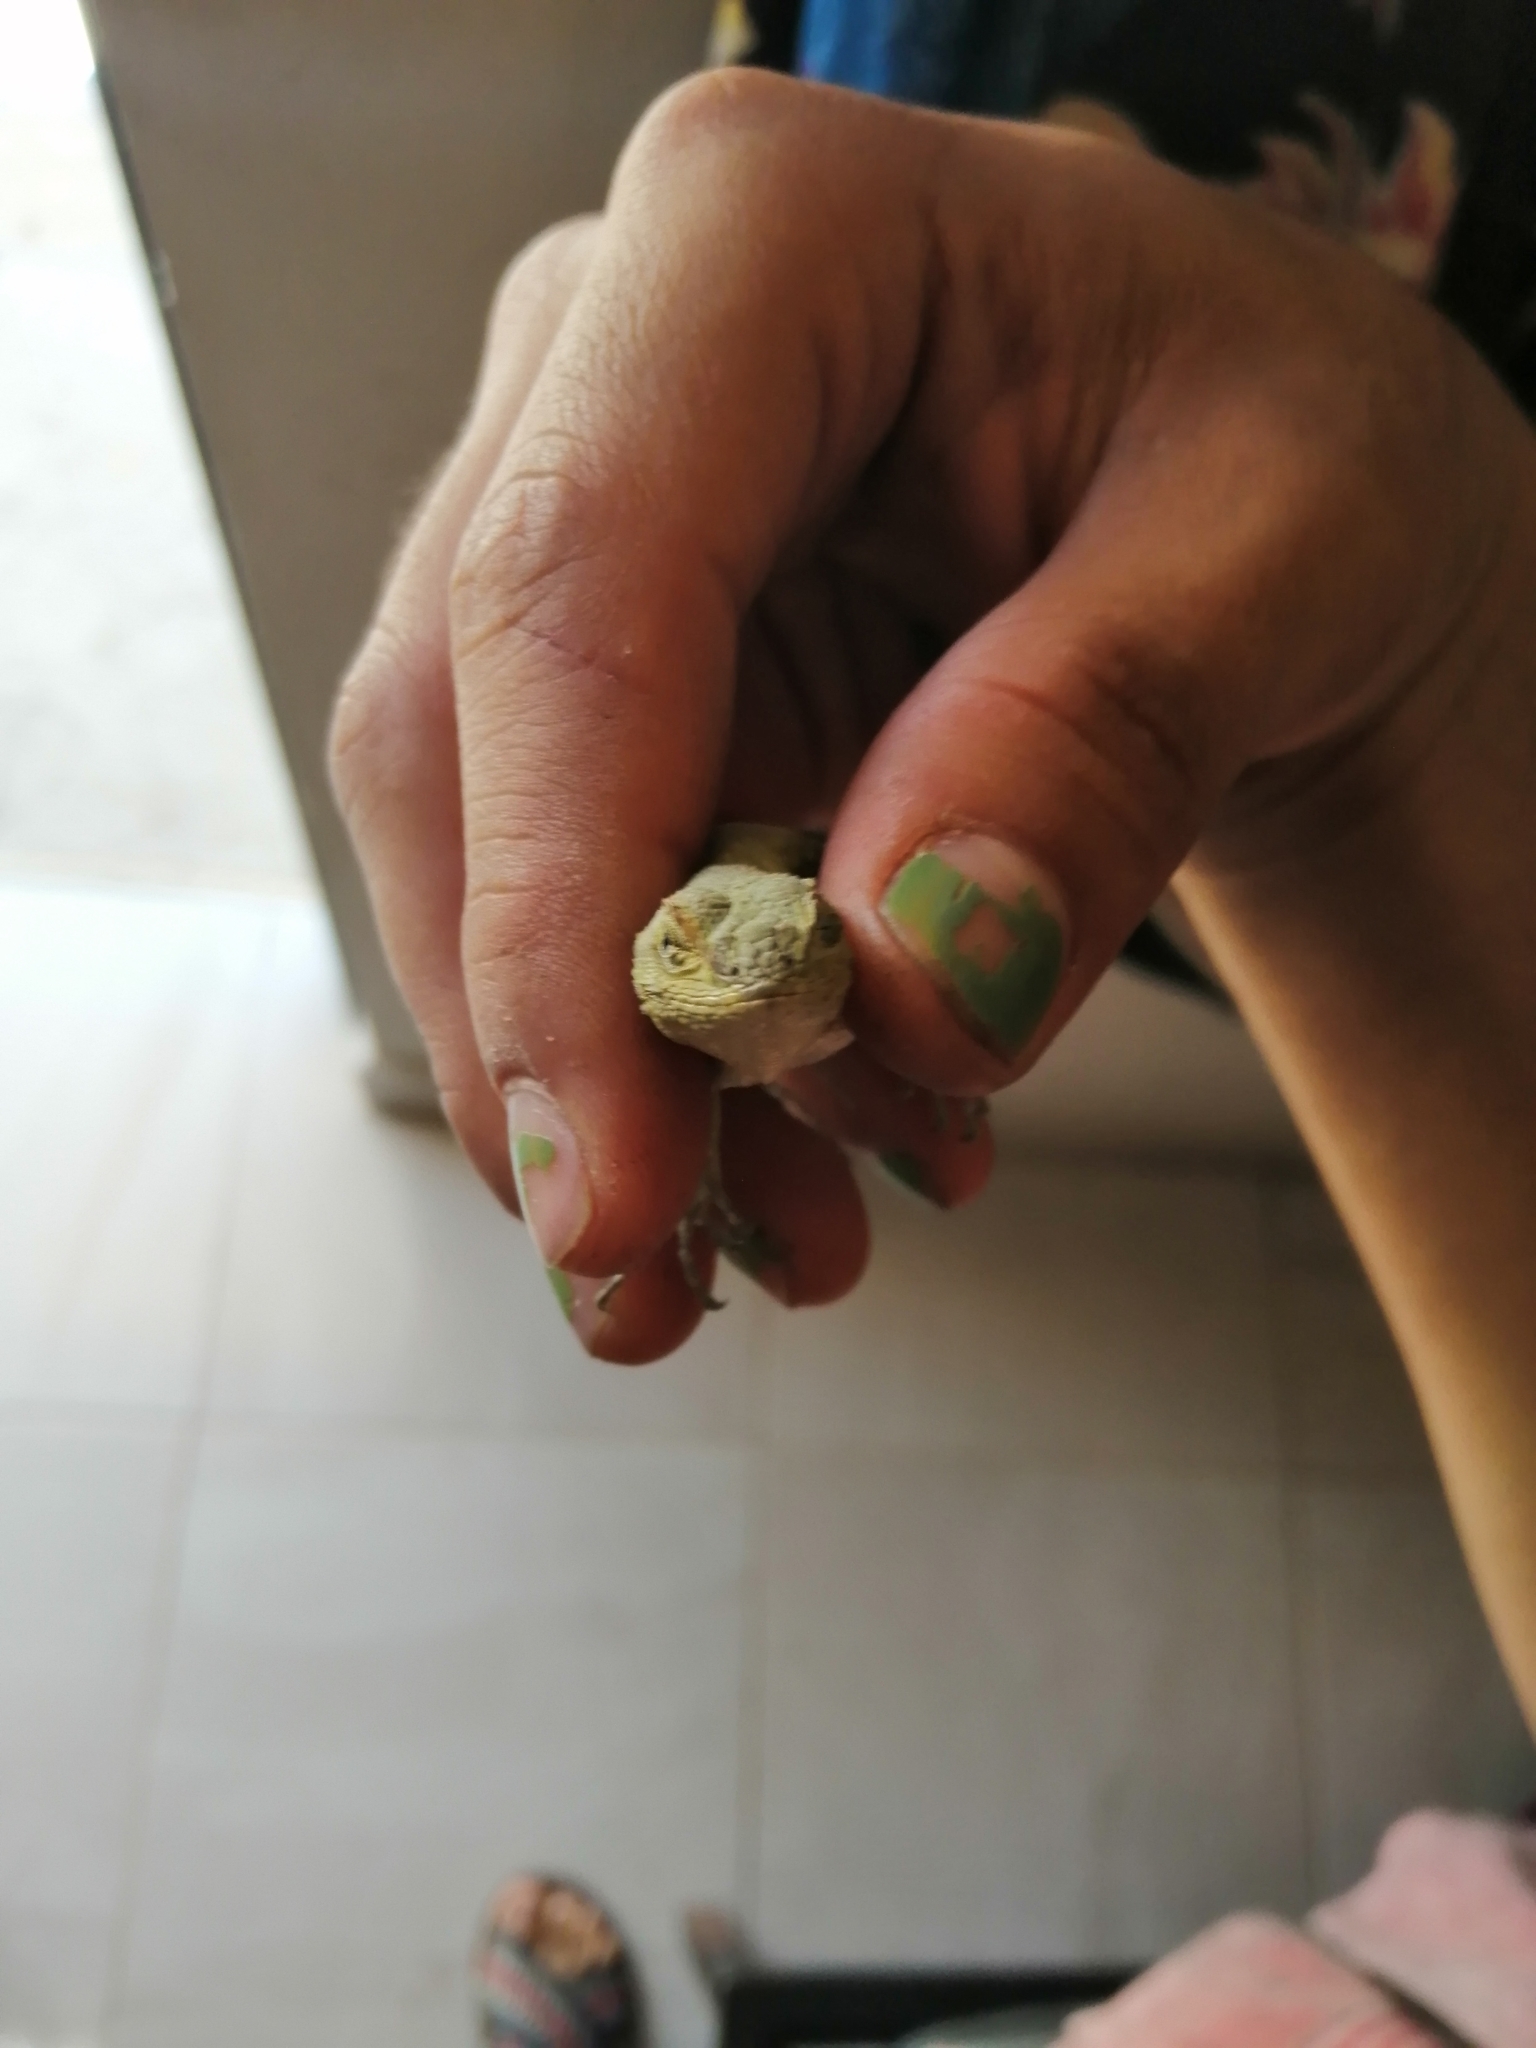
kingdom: Animalia
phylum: Chordata
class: Squamata
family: Phrynosomatidae
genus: Sceloporus
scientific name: Sceloporus grammicus
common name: Mesquite lizard
